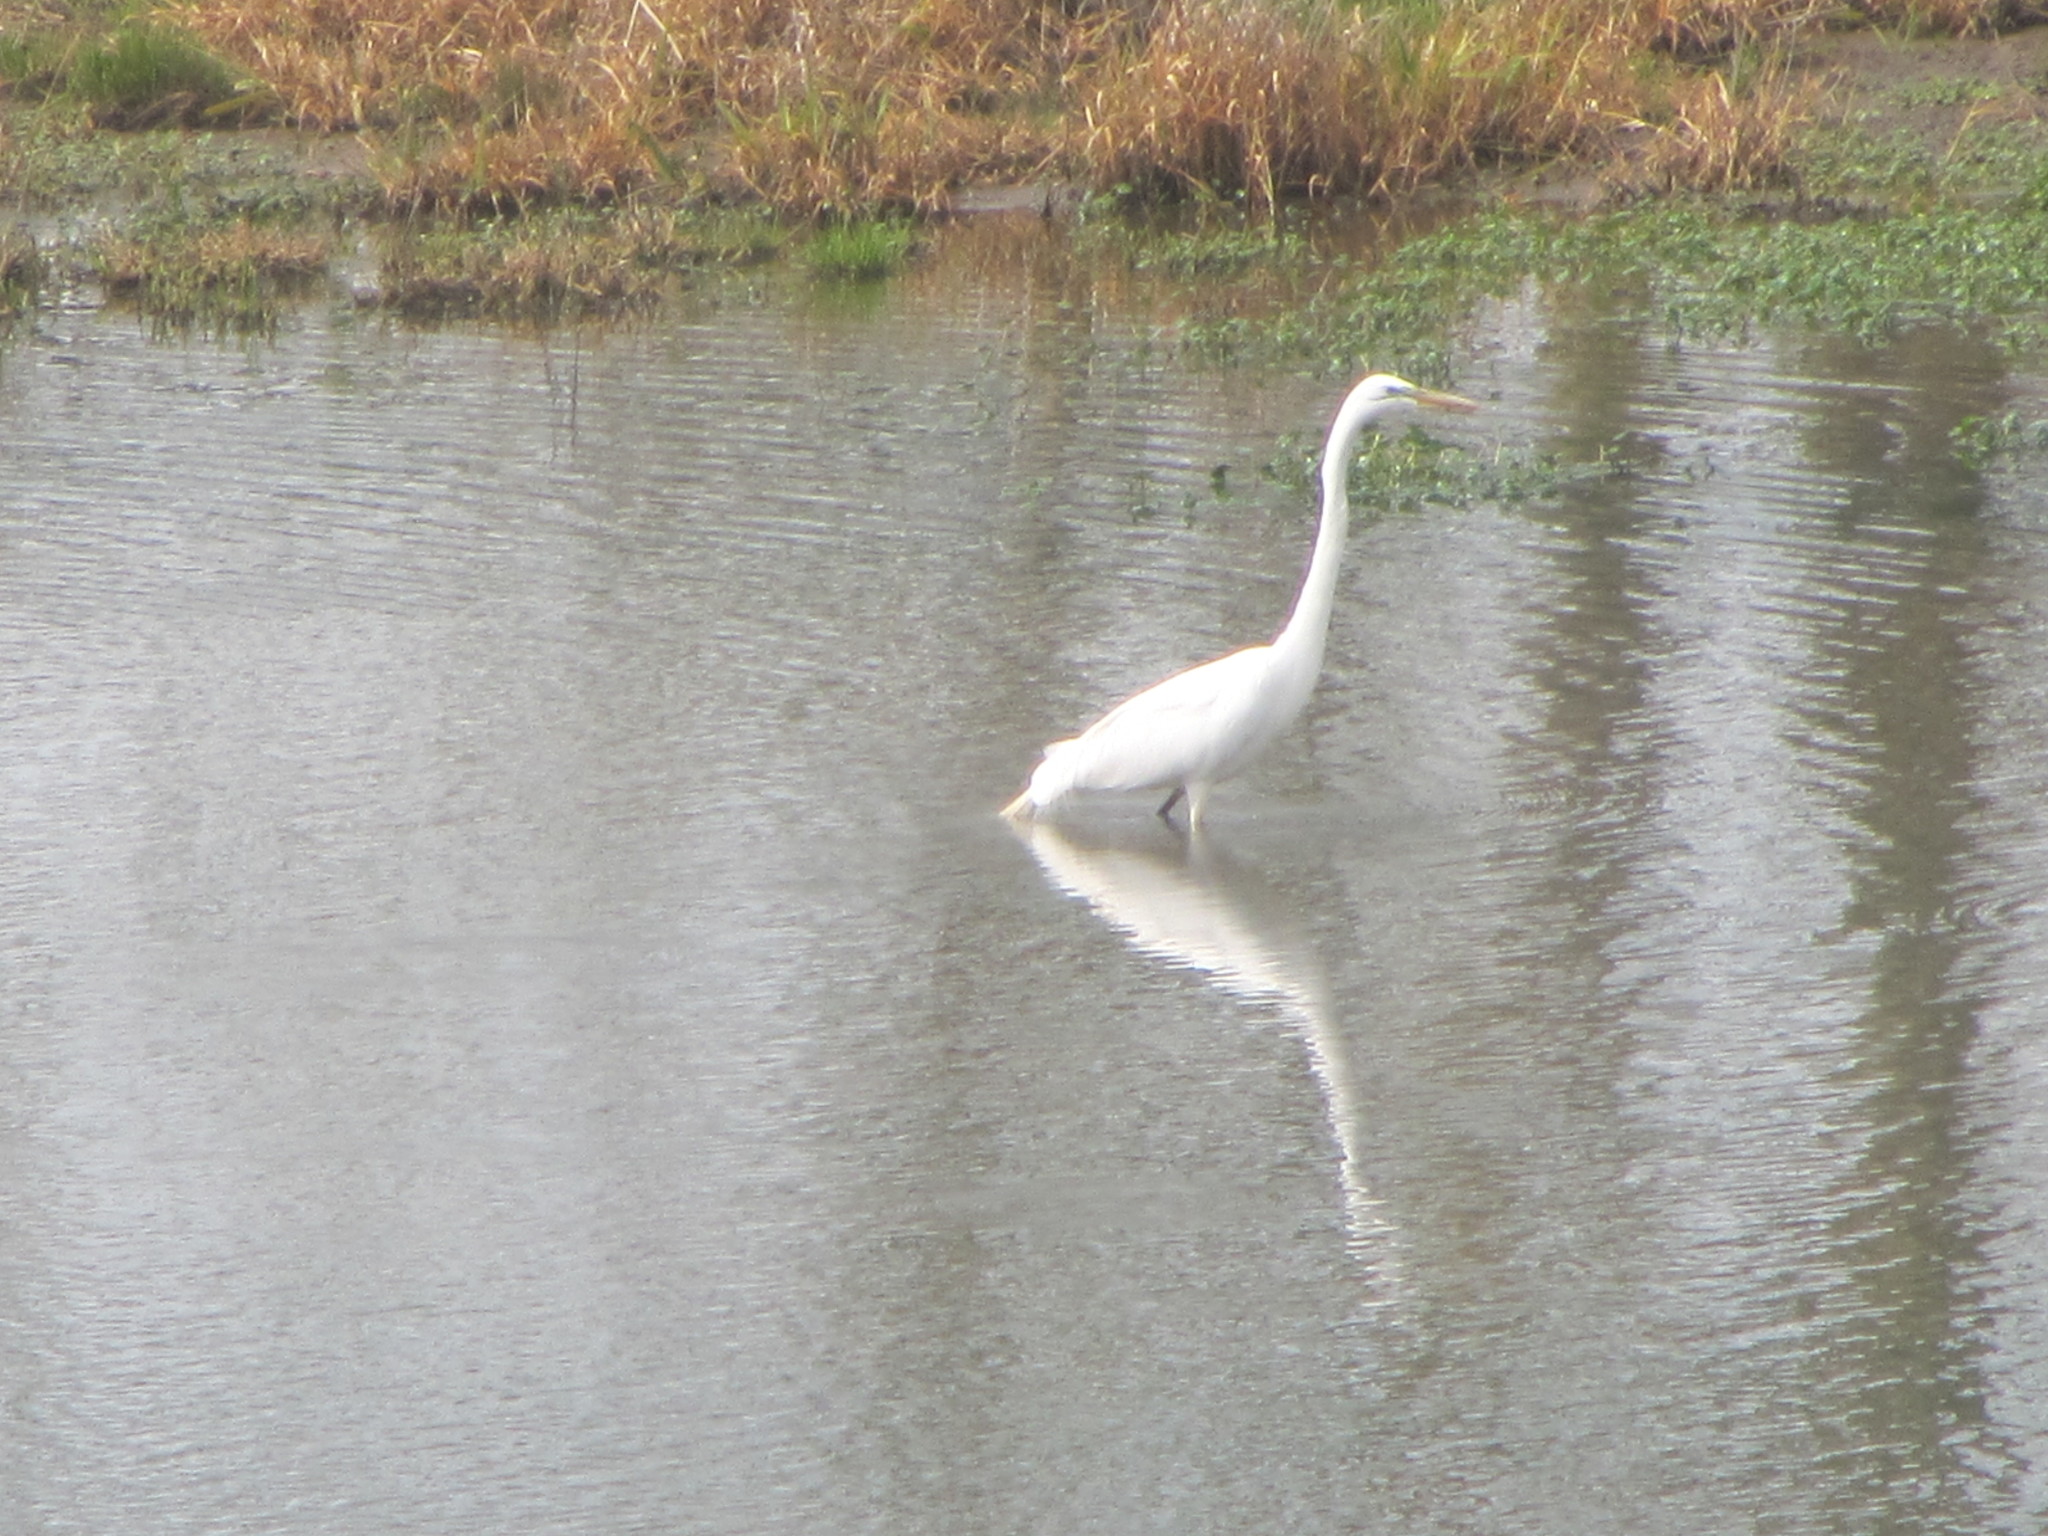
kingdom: Animalia
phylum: Chordata
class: Aves
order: Pelecaniformes
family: Ardeidae
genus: Ardea
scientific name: Ardea alba
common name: Great egret
